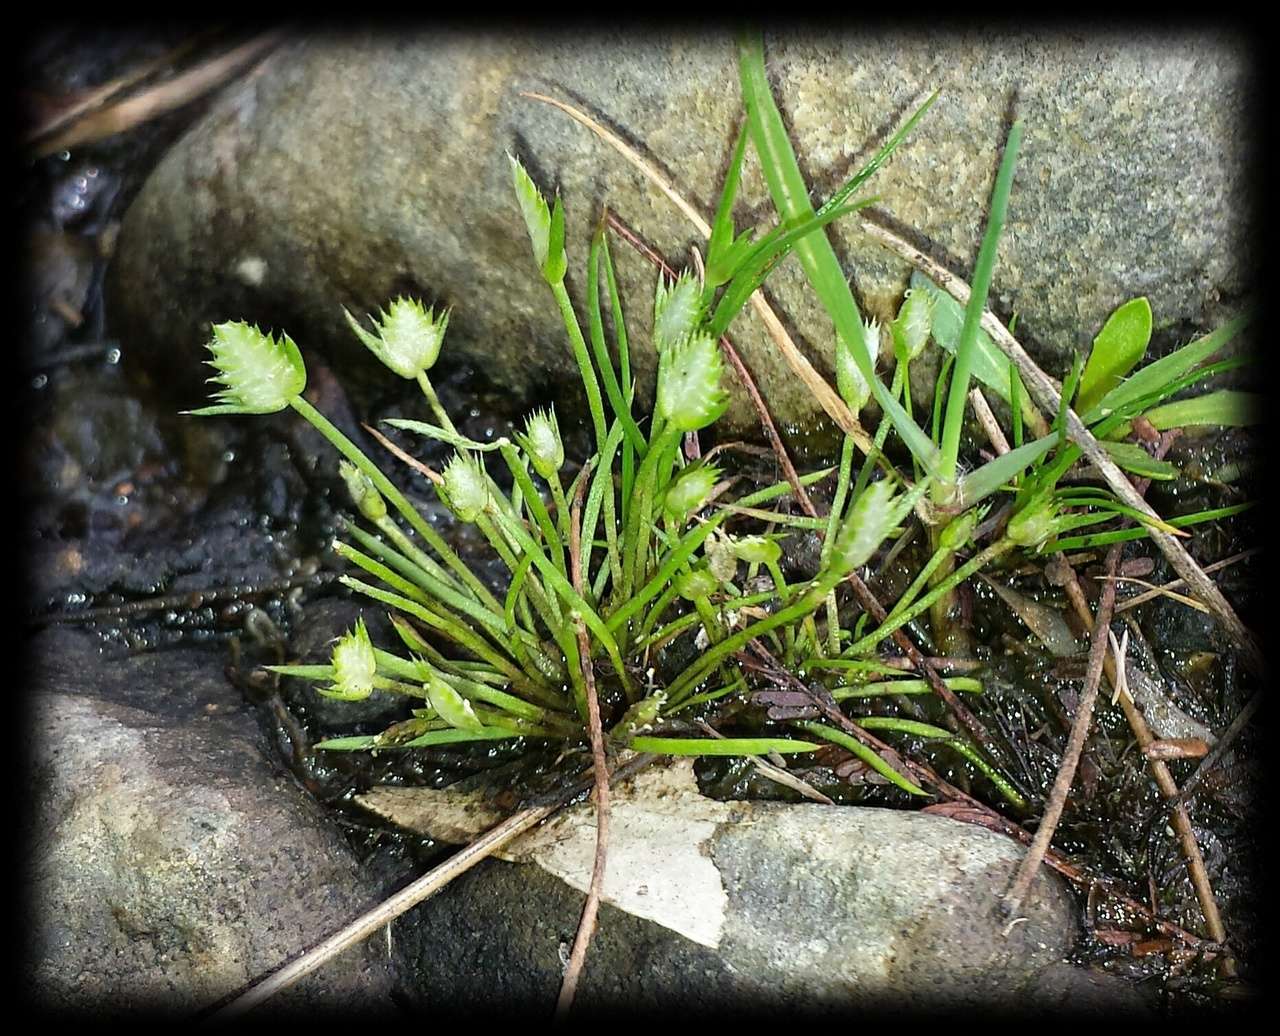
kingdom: Plantae
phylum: Tracheophyta
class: Liliopsida
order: Poales
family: Restionaceae
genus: Aphelia
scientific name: Aphelia pumilio
